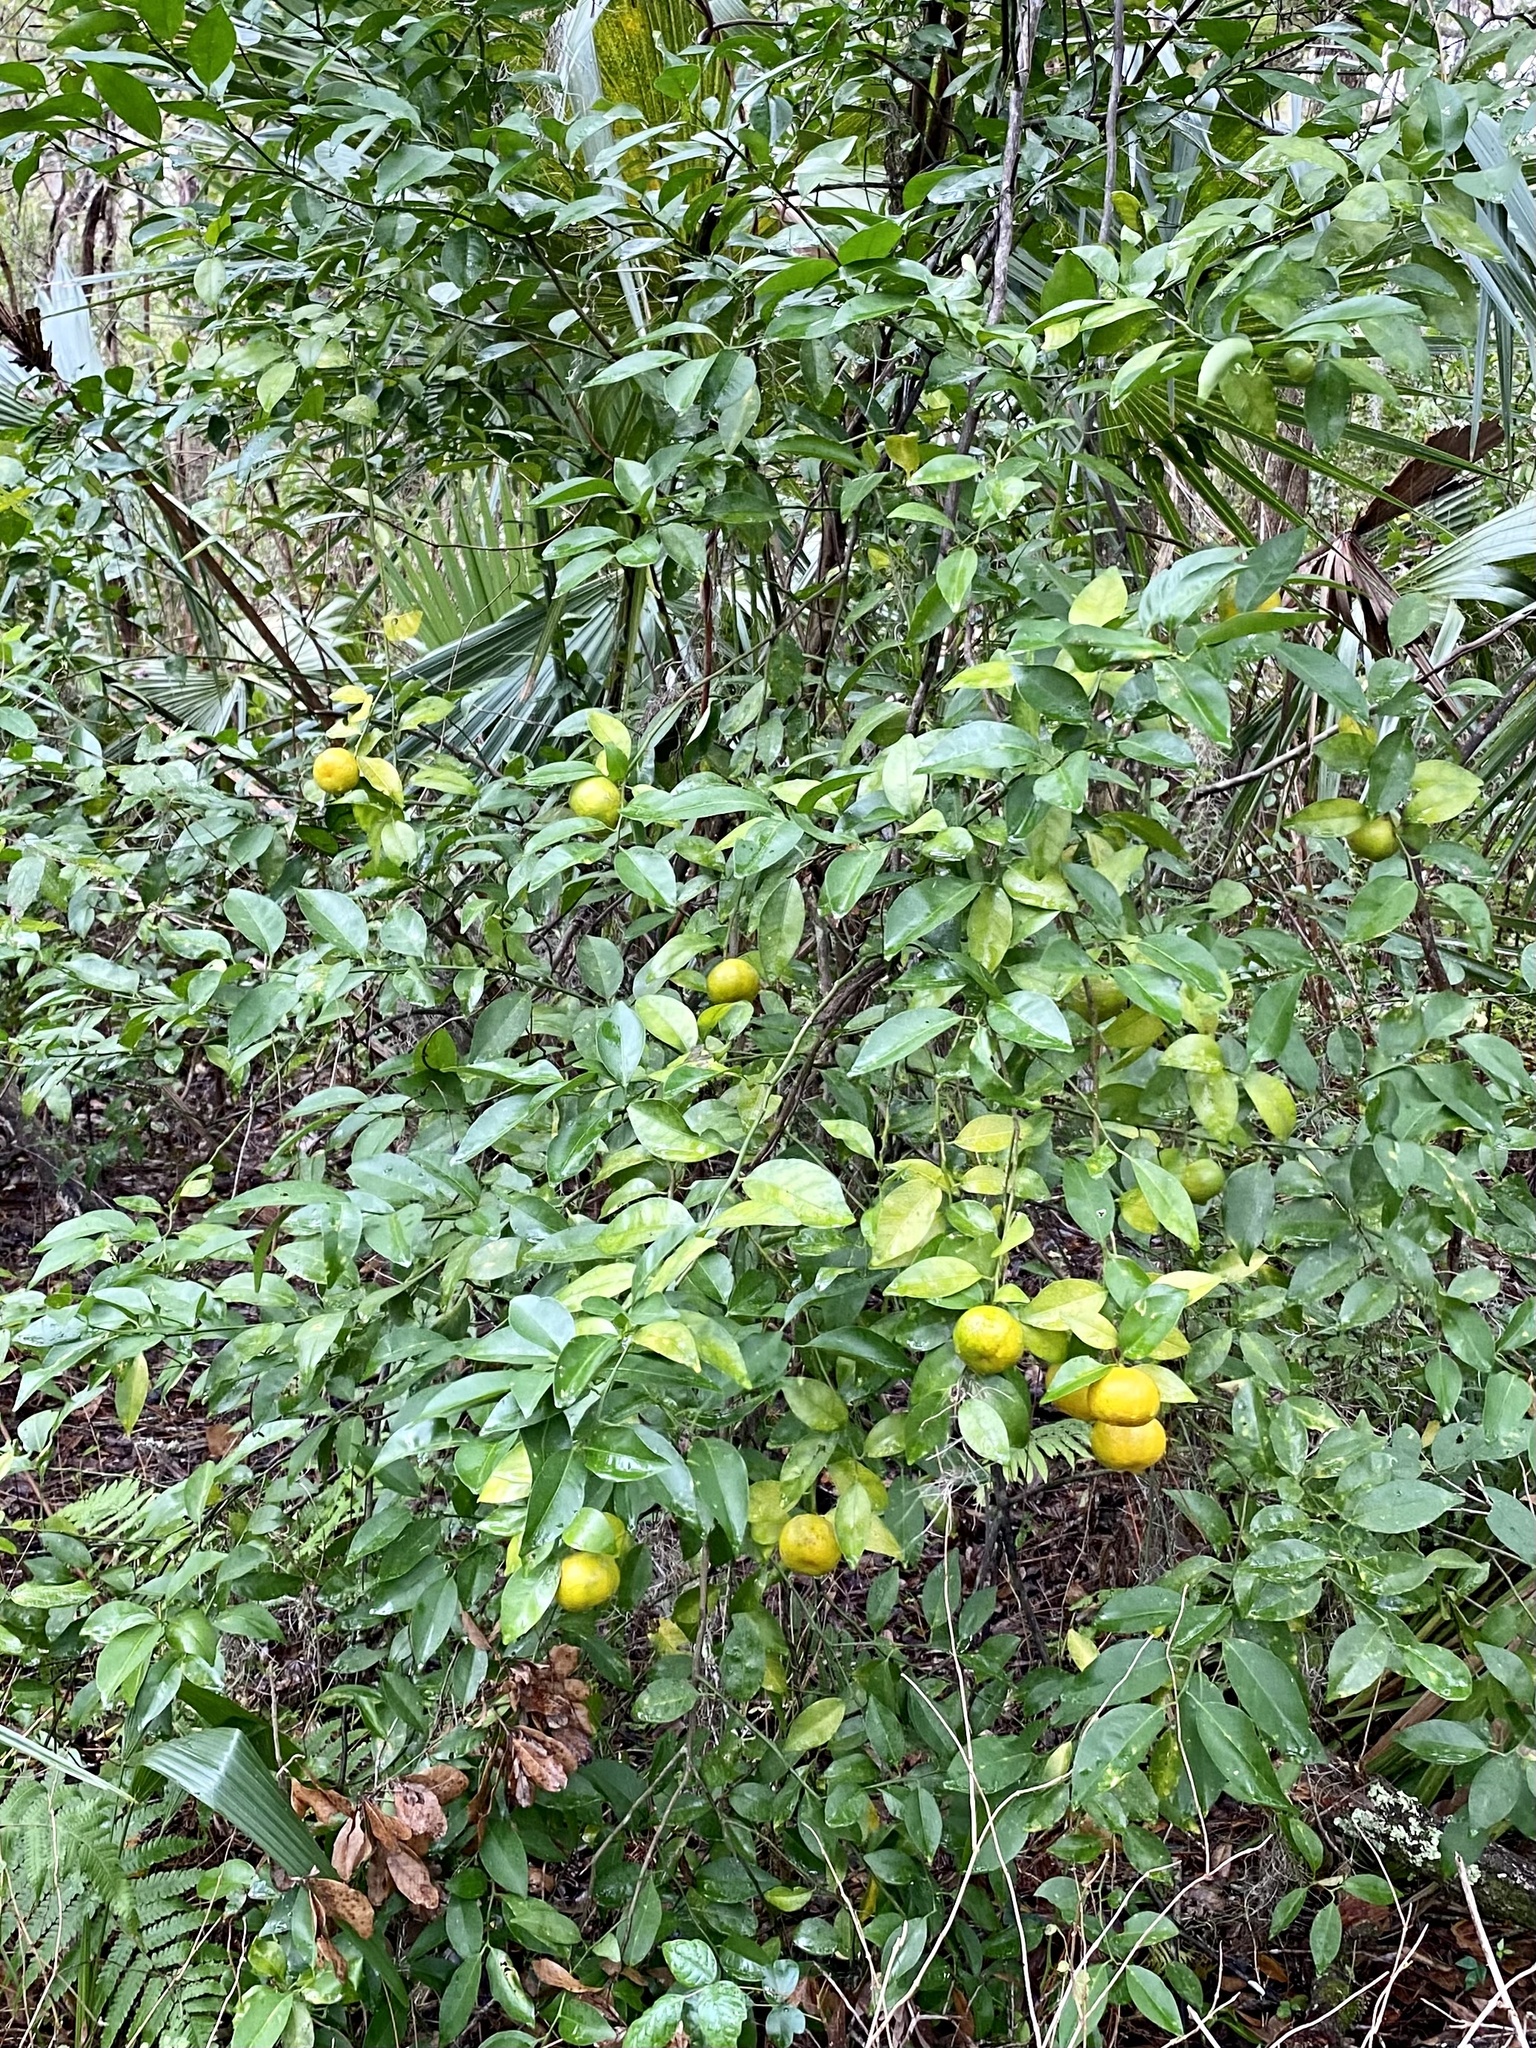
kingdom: Plantae
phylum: Tracheophyta
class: Magnoliopsida
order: Sapindales
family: Rutaceae
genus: Citrus
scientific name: Citrus
